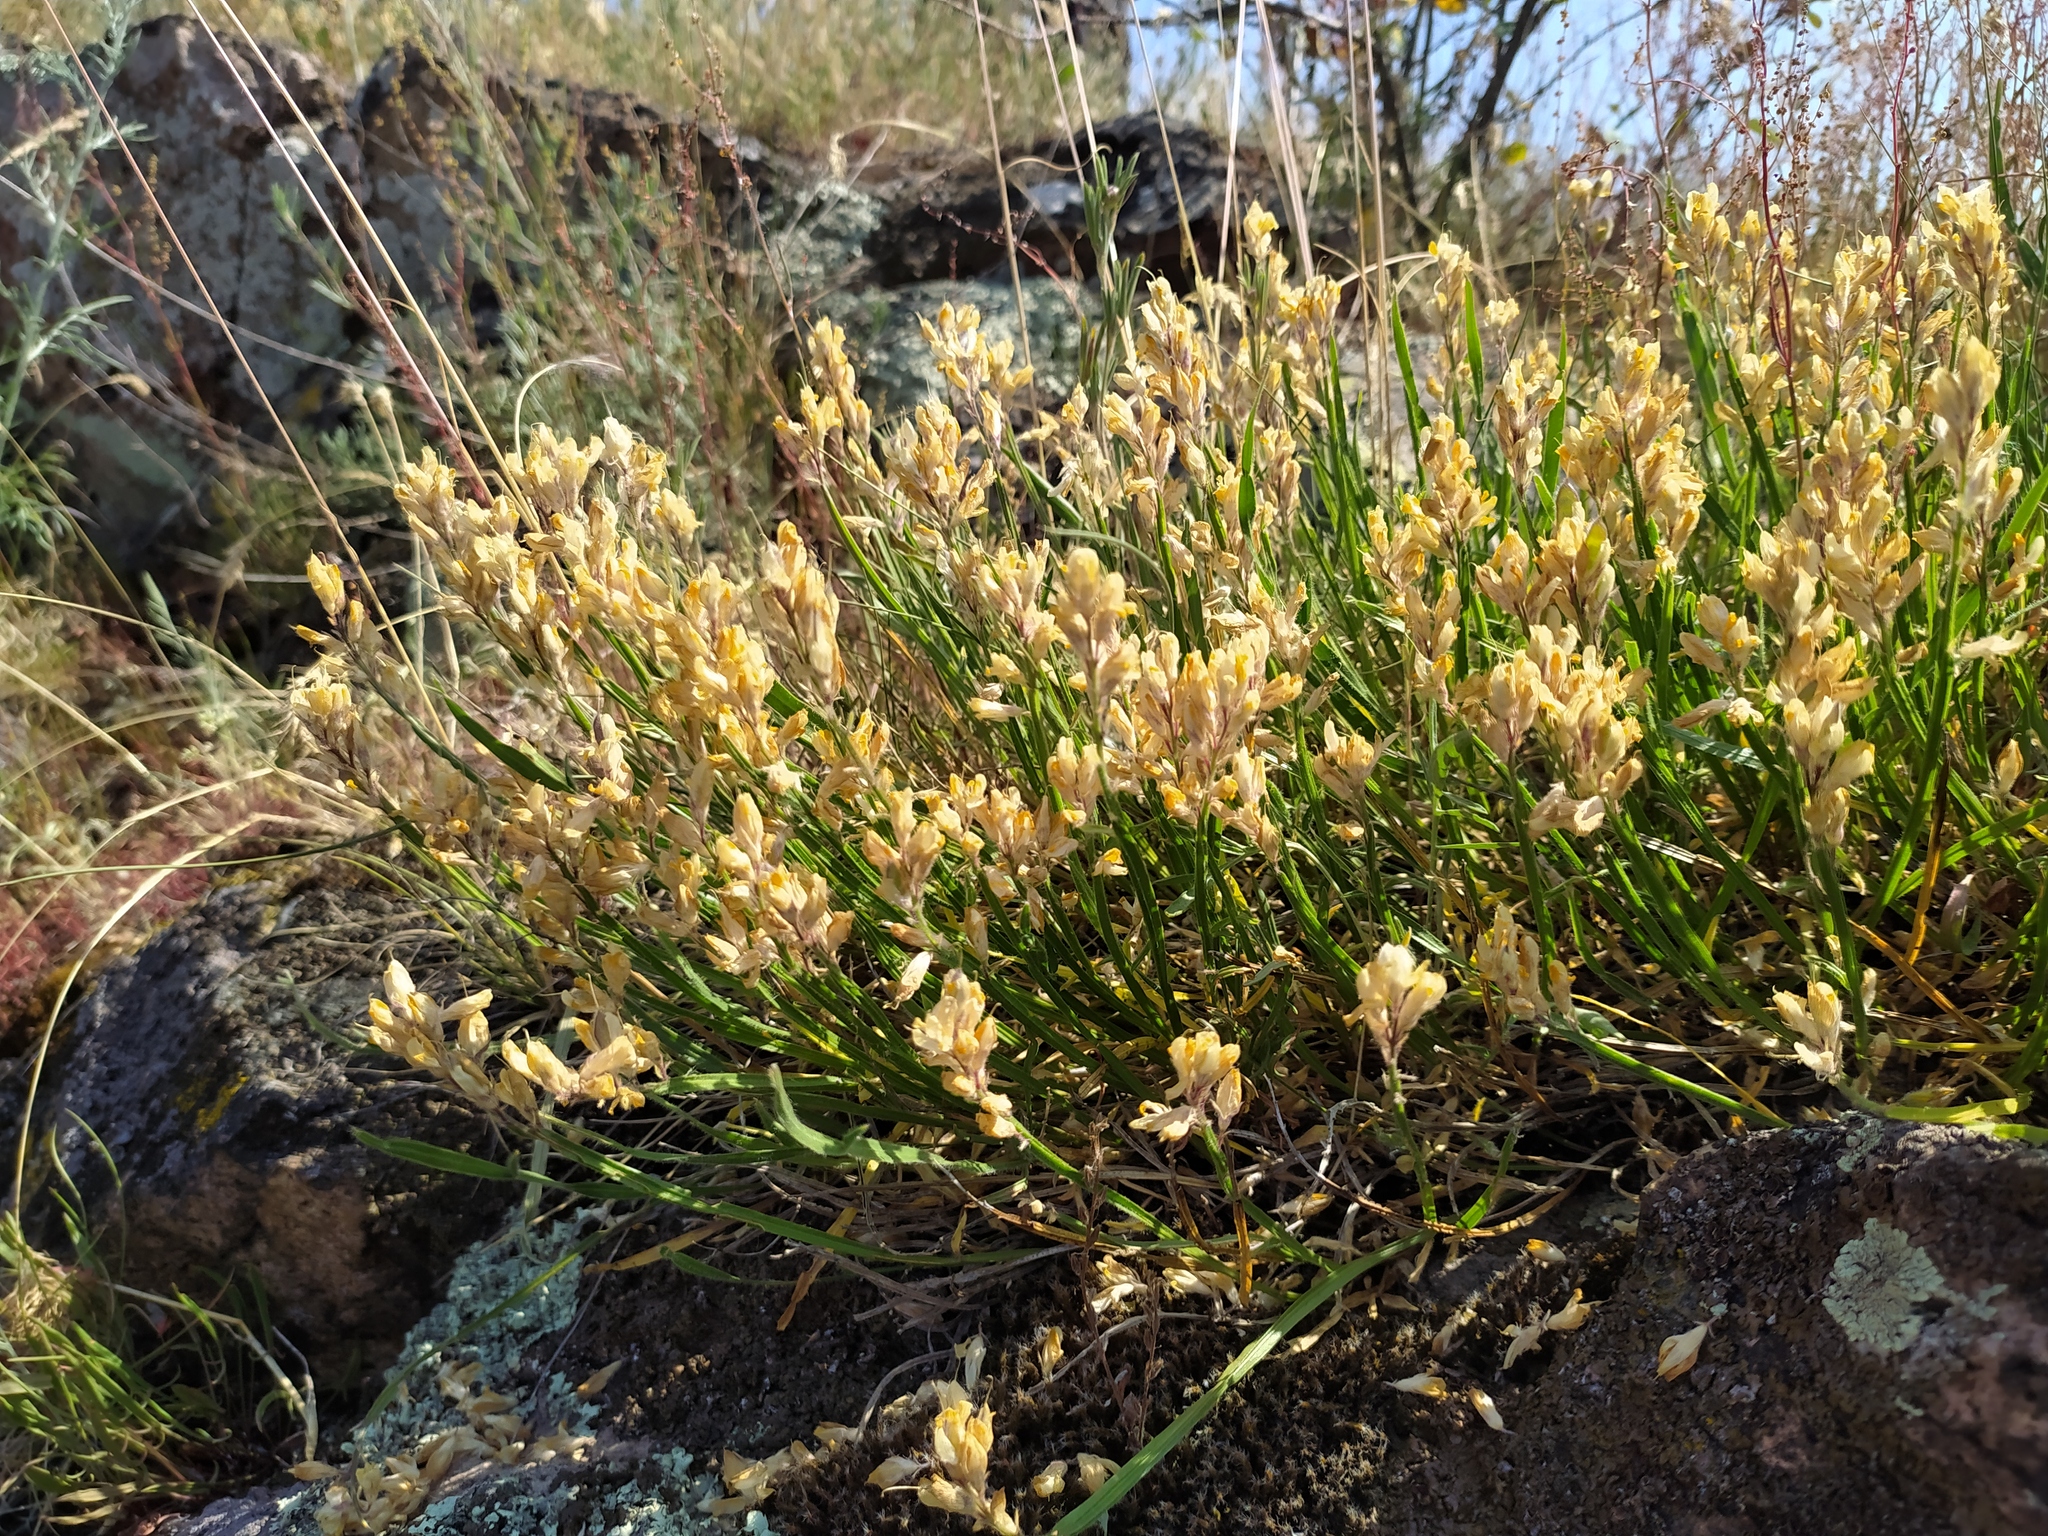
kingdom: Plantae
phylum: Tracheophyta
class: Magnoliopsida
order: Fabales
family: Fabaceae
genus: Genista
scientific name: Genista sagittalis
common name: Winged greenweed
